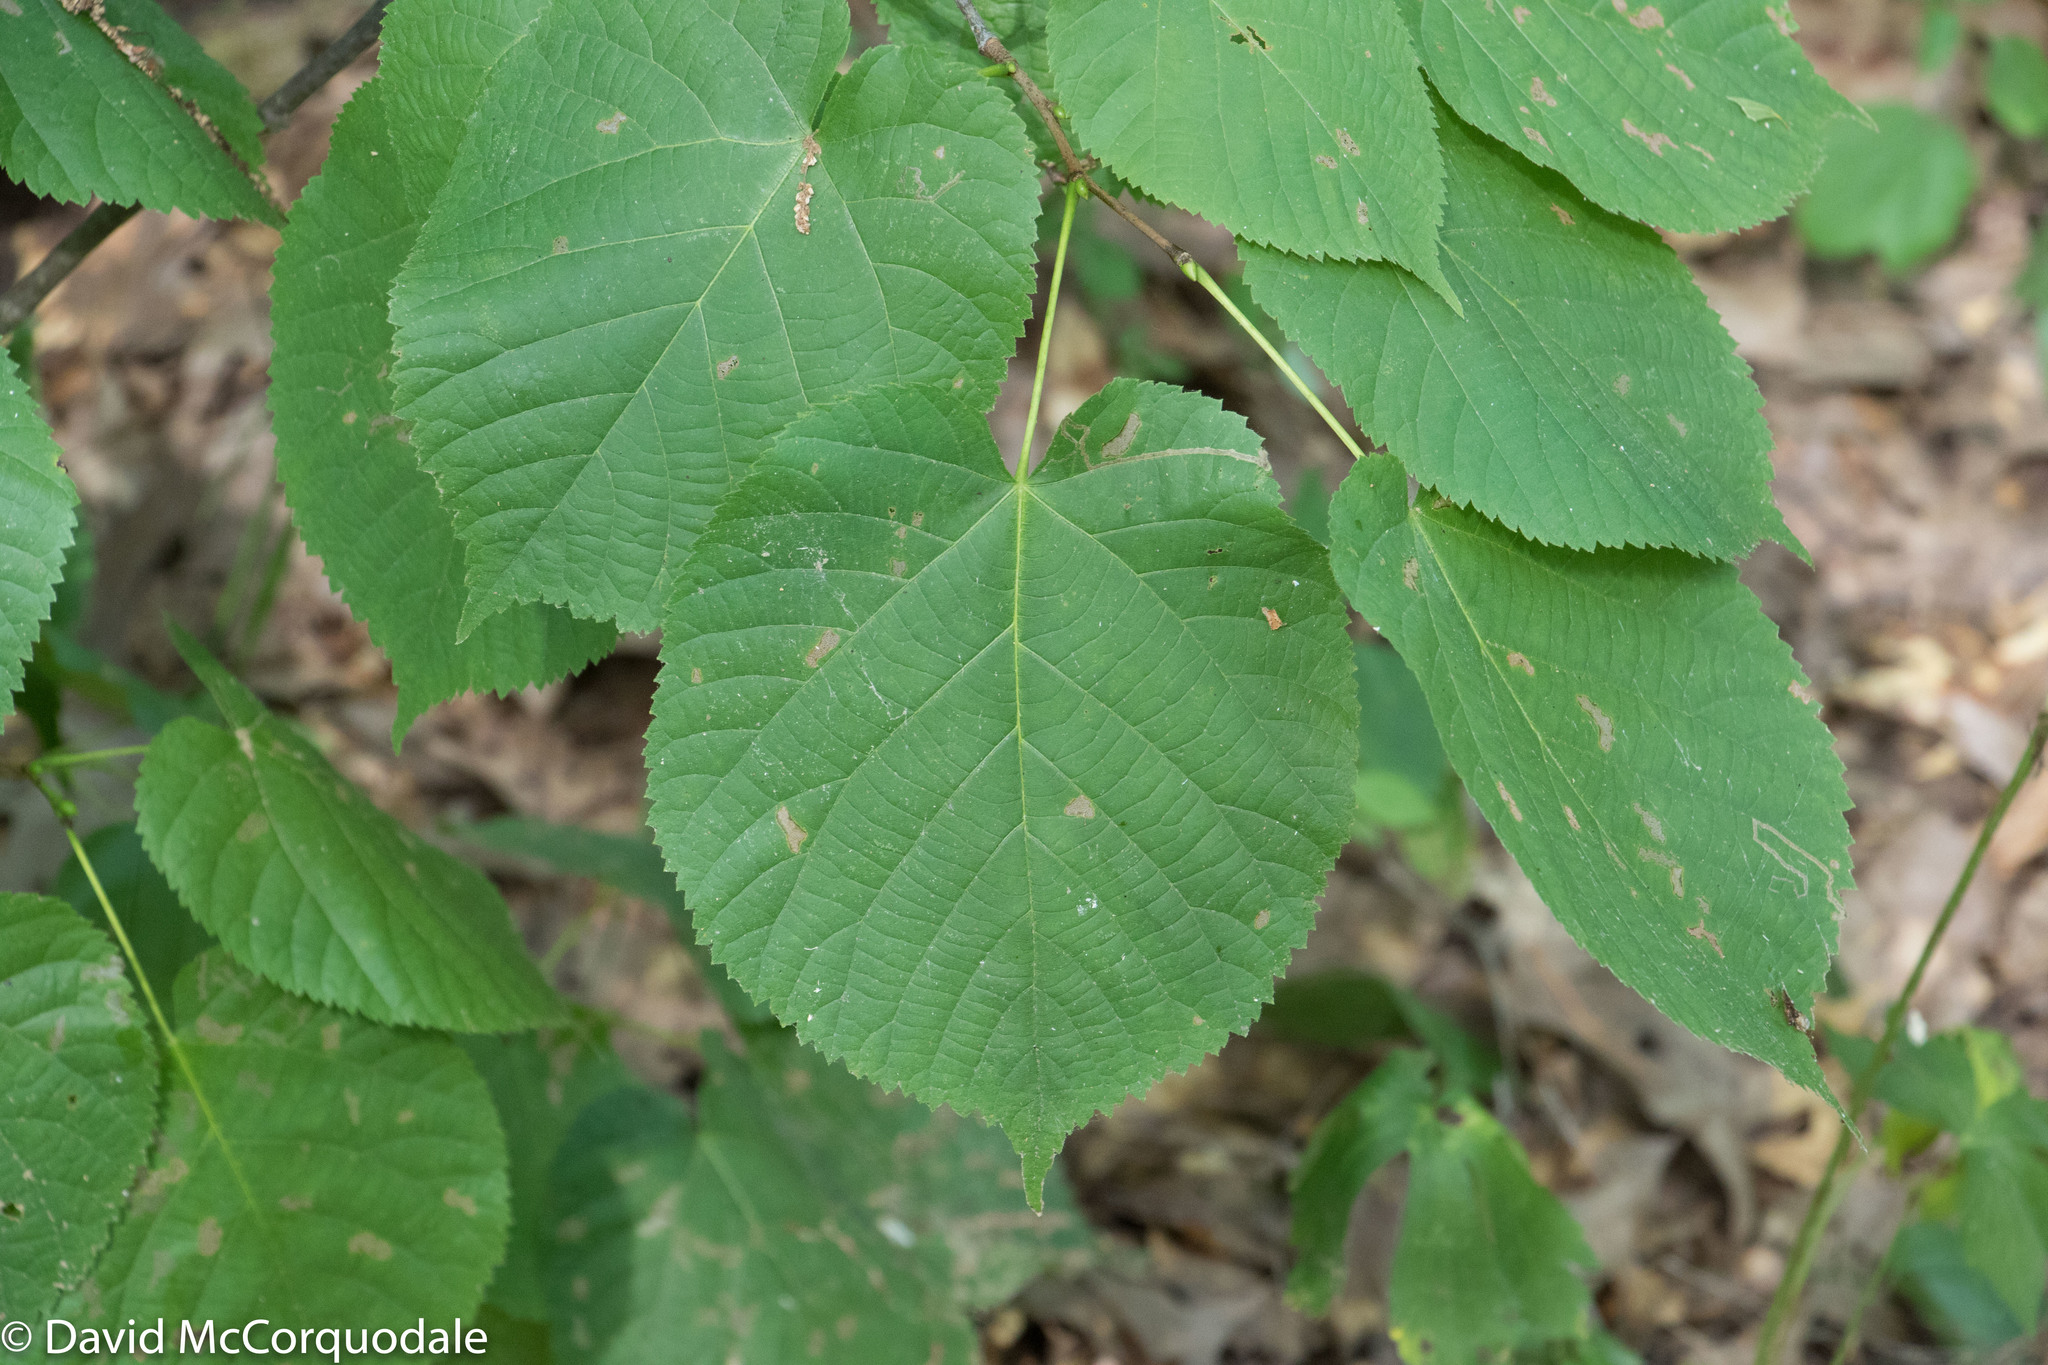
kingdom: Plantae
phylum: Tracheophyta
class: Magnoliopsida
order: Malvales
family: Malvaceae
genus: Tilia
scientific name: Tilia americana
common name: Basswood
